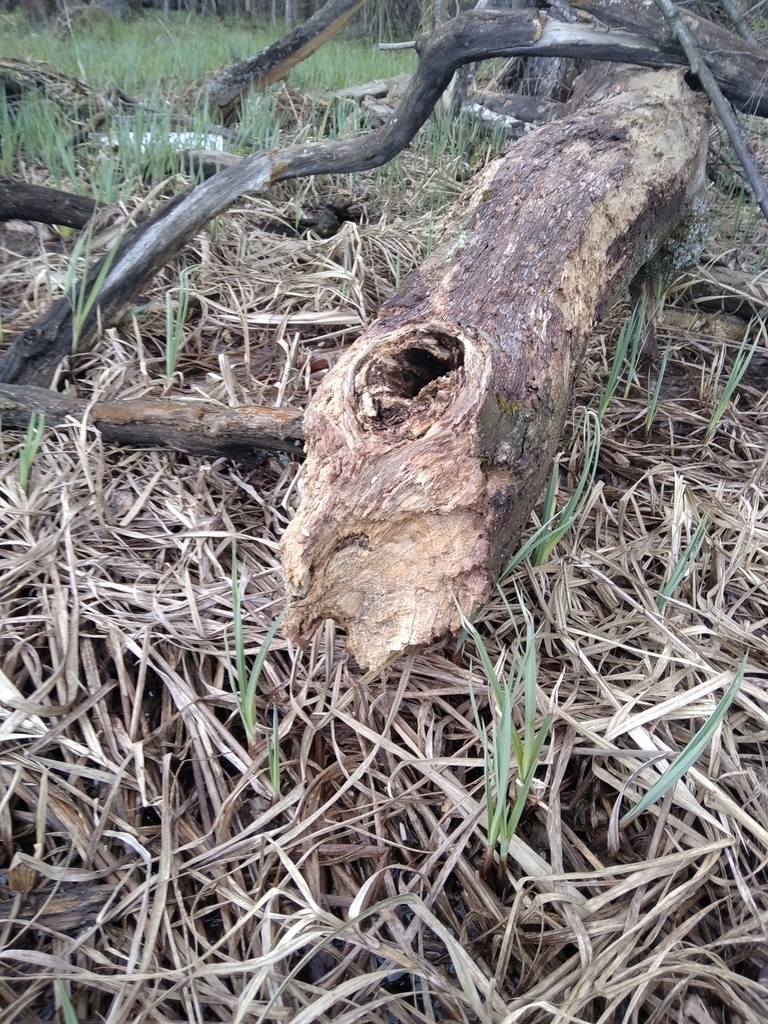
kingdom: Animalia
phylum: Chordata
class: Mammalia
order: Rodentia
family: Castoridae
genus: Castor
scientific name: Castor fiber
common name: Eurasian beaver
